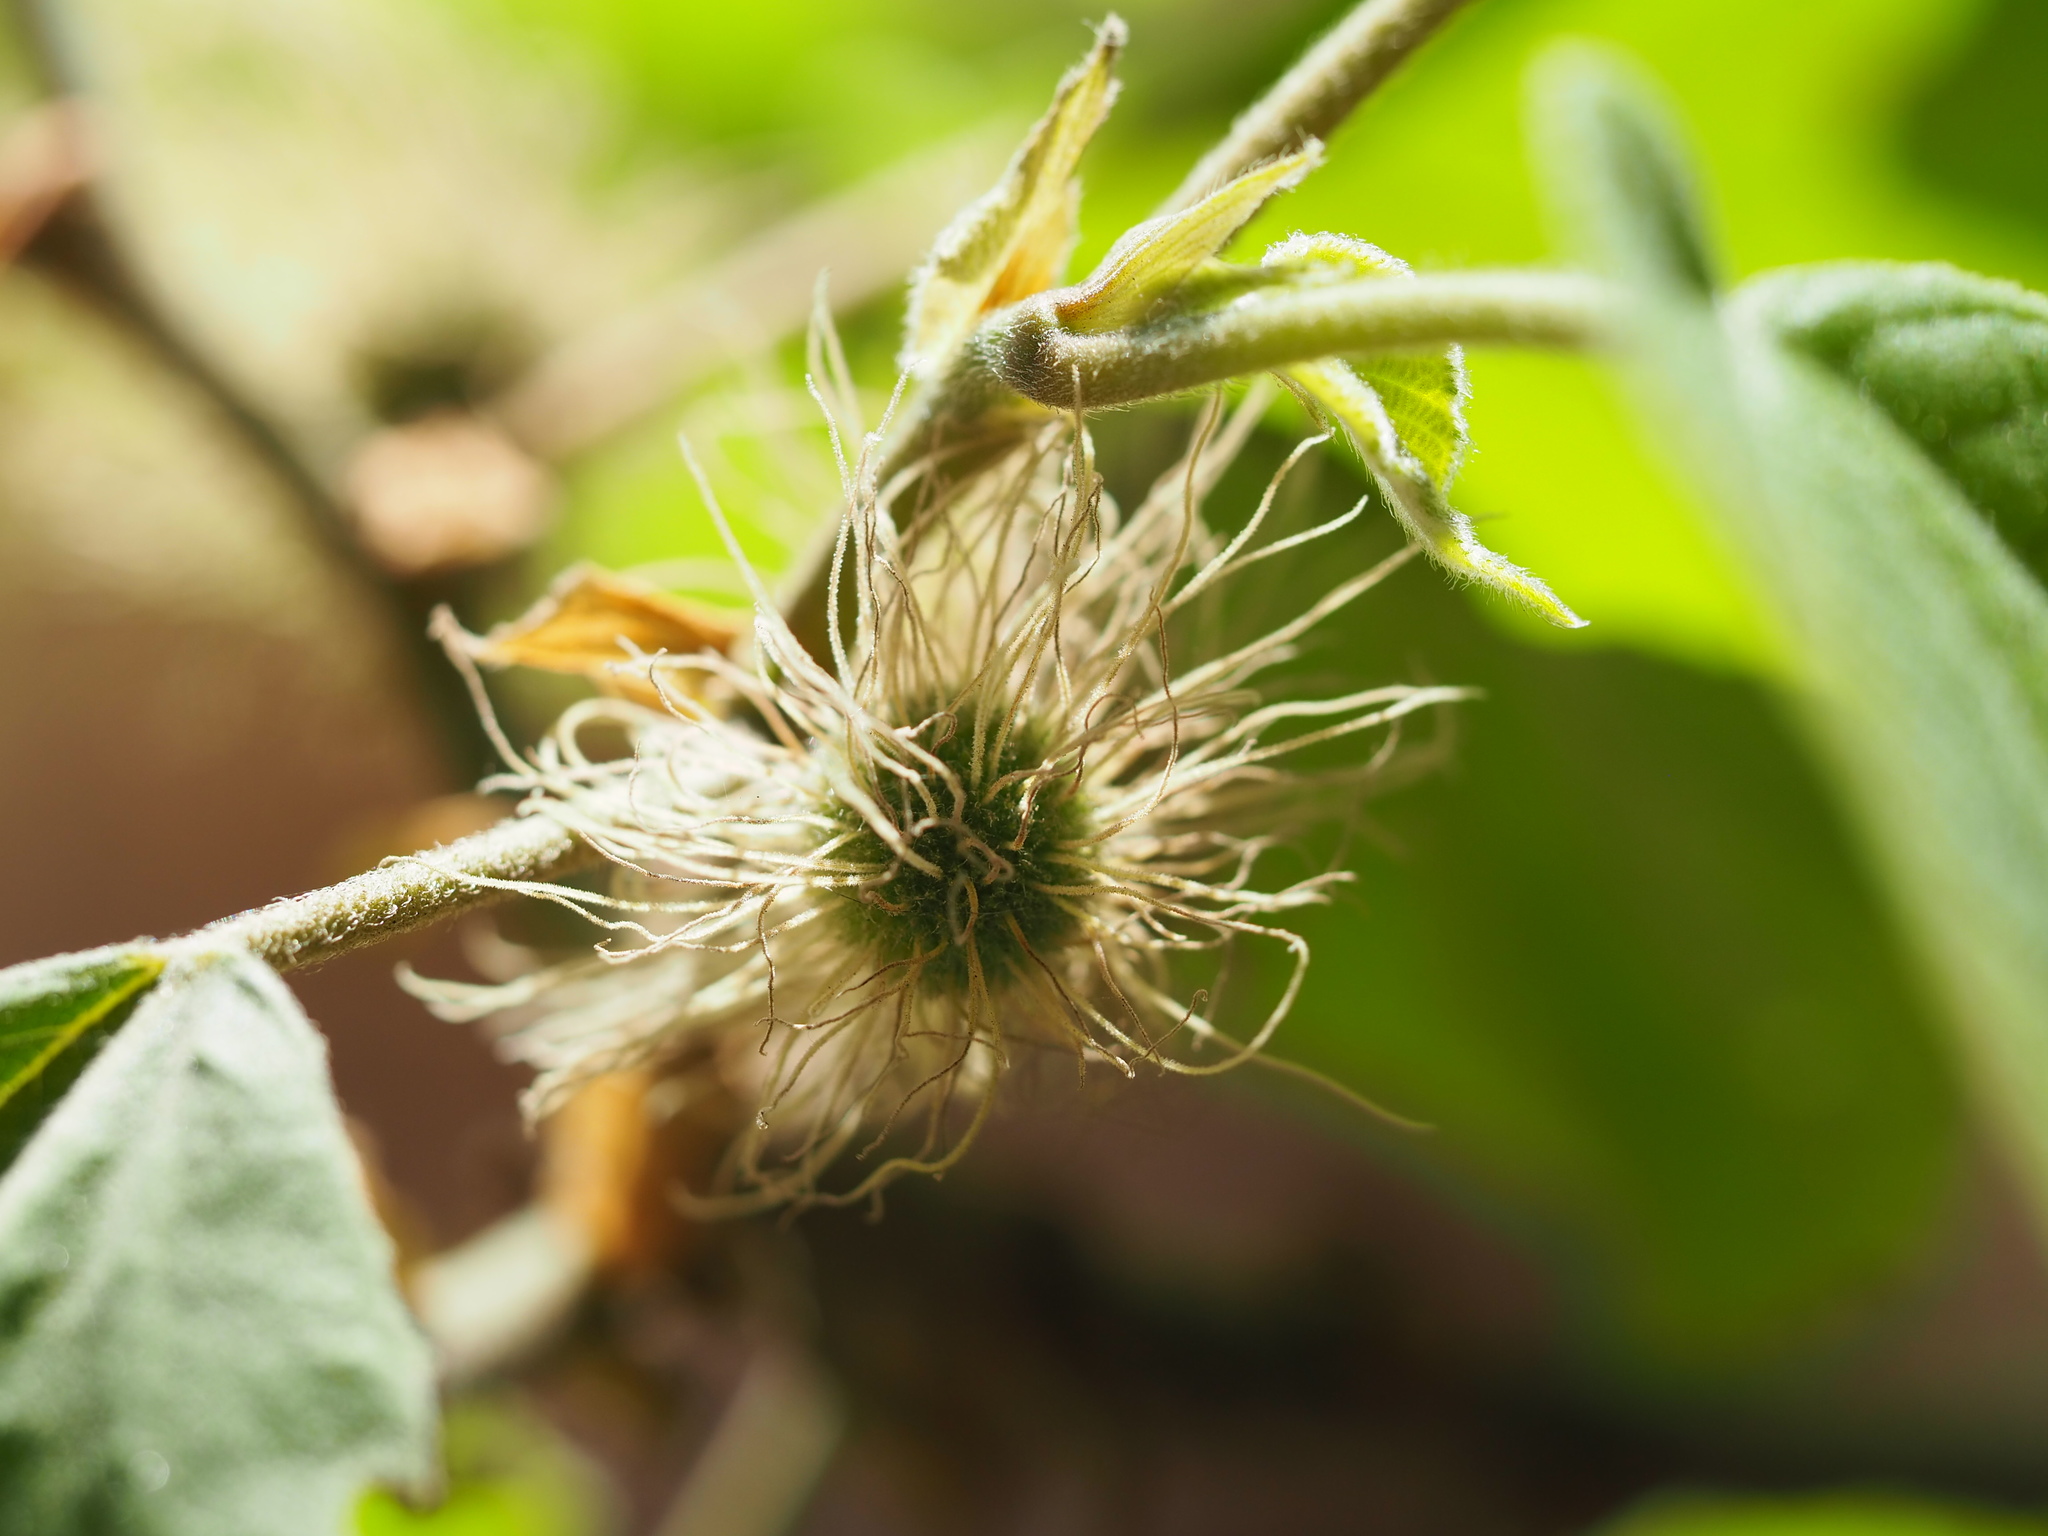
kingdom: Plantae
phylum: Tracheophyta
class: Magnoliopsida
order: Rosales
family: Moraceae
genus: Broussonetia
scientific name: Broussonetia papyrifera
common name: Paper mulberry
